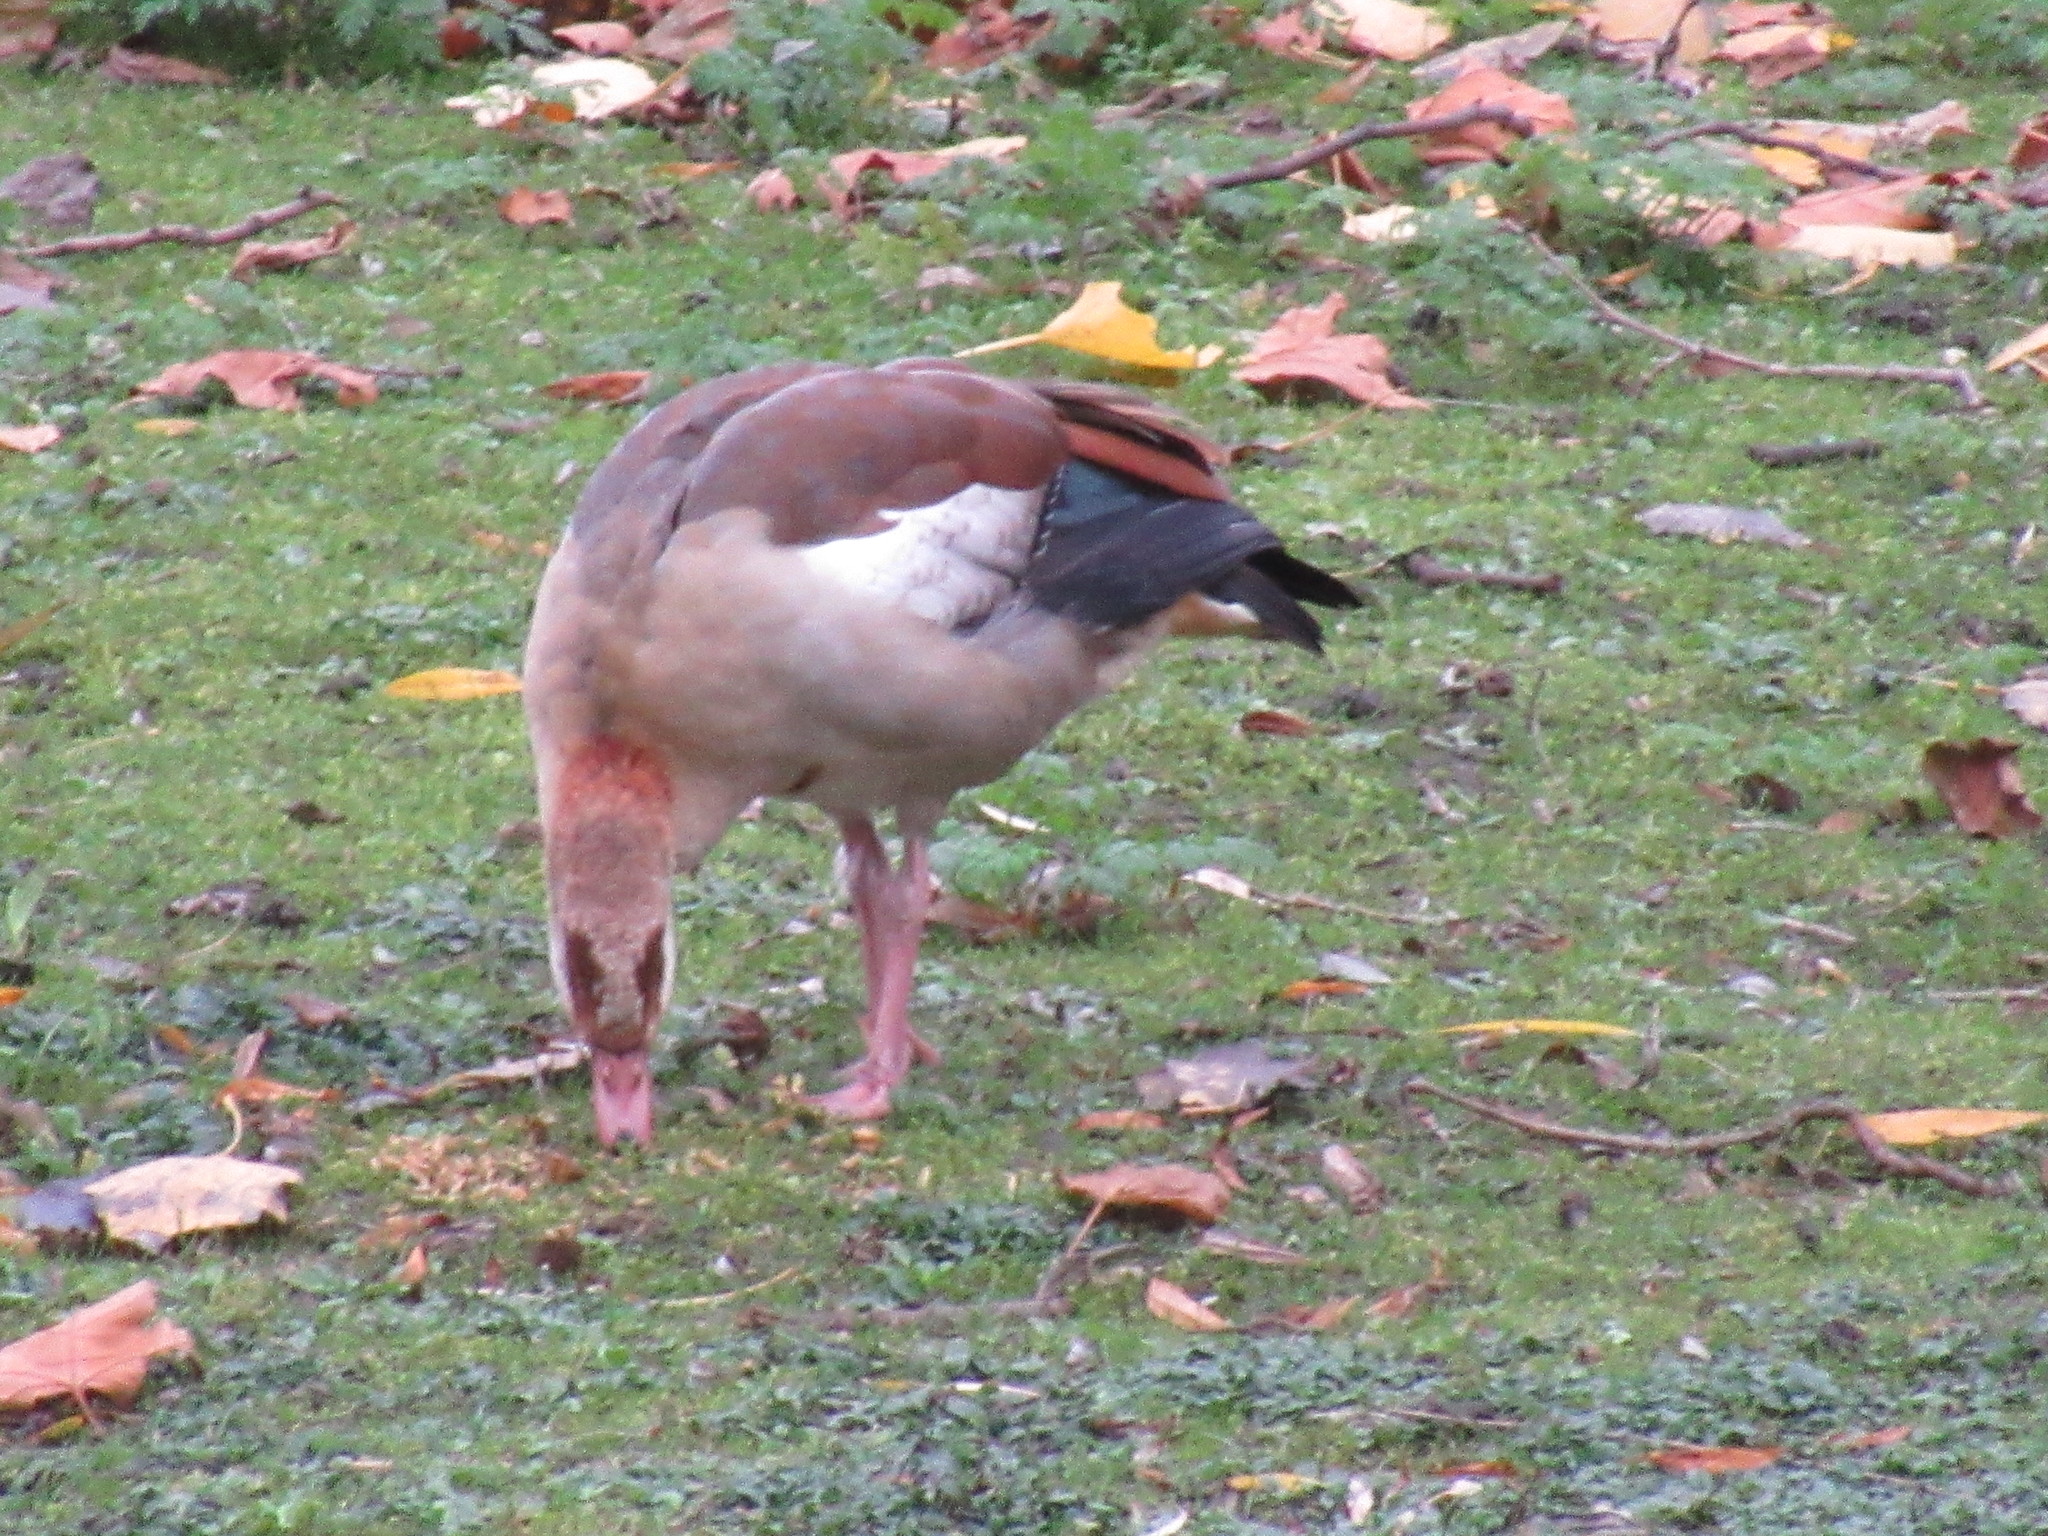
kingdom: Animalia
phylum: Chordata
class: Aves
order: Anseriformes
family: Anatidae
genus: Alopochen
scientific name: Alopochen aegyptiaca
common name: Egyptian goose
